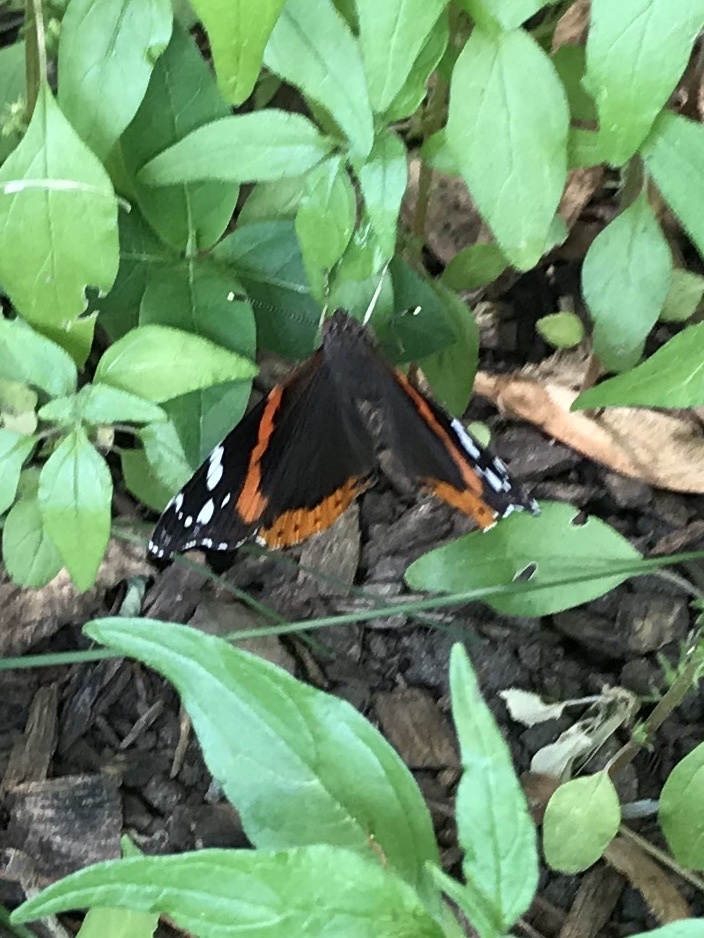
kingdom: Animalia
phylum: Arthropoda
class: Insecta
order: Lepidoptera
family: Nymphalidae
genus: Vanessa
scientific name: Vanessa atalanta
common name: Red admiral
